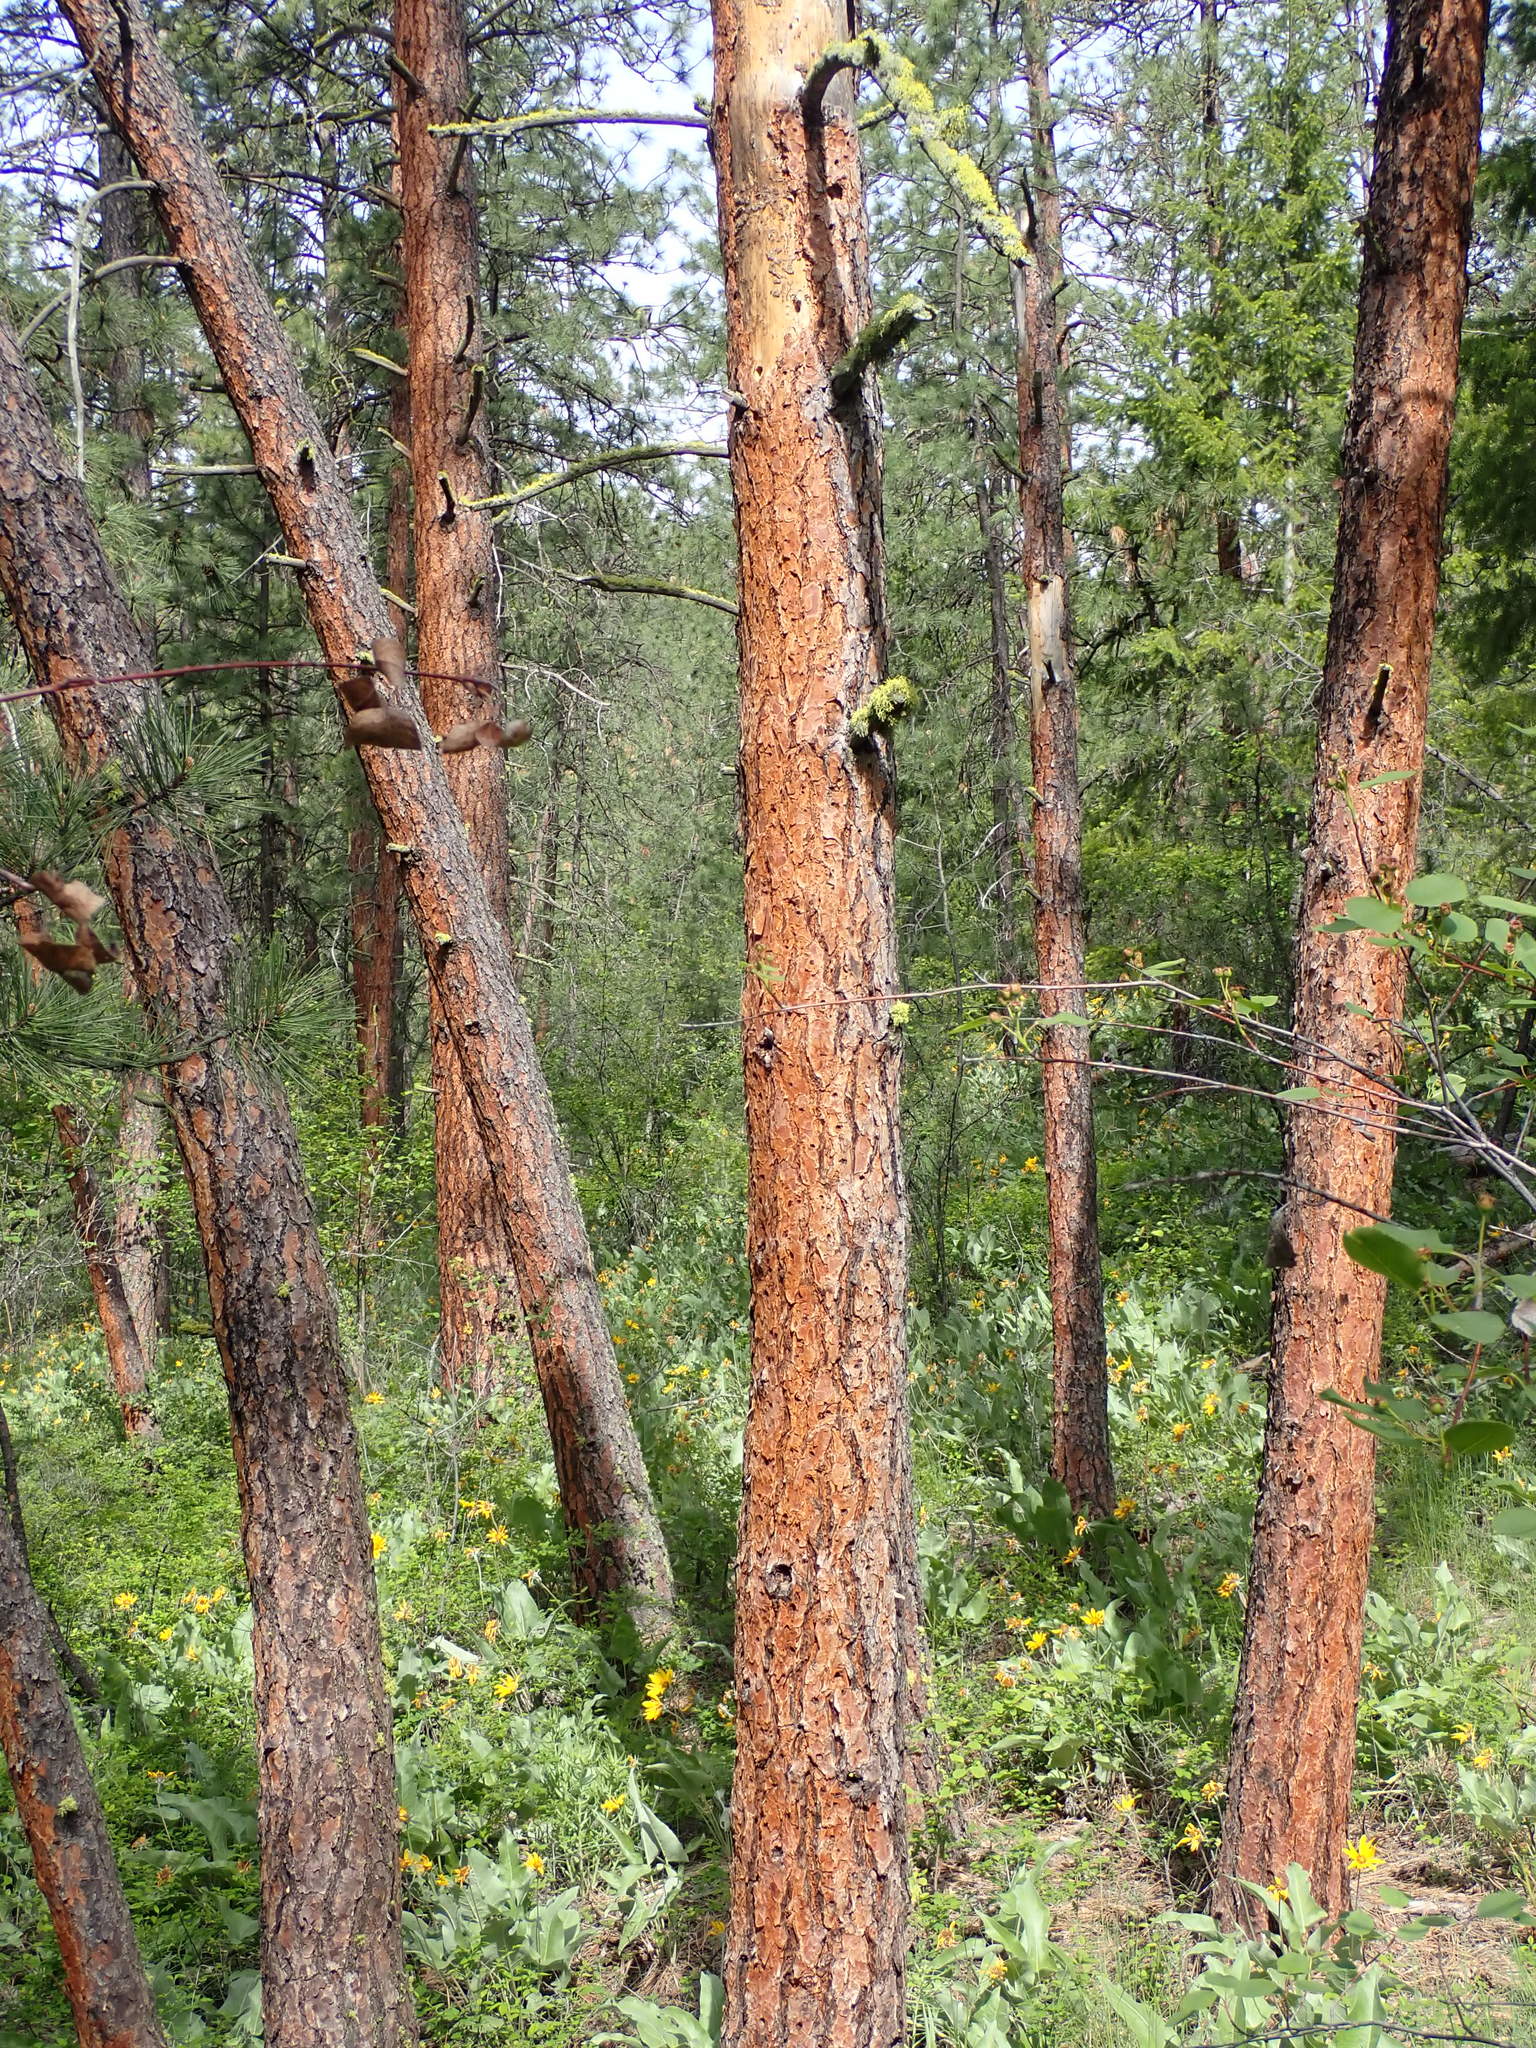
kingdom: Plantae
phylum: Tracheophyta
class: Pinopsida
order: Pinales
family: Pinaceae
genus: Pinus
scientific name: Pinus ponderosa
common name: Western yellow-pine
